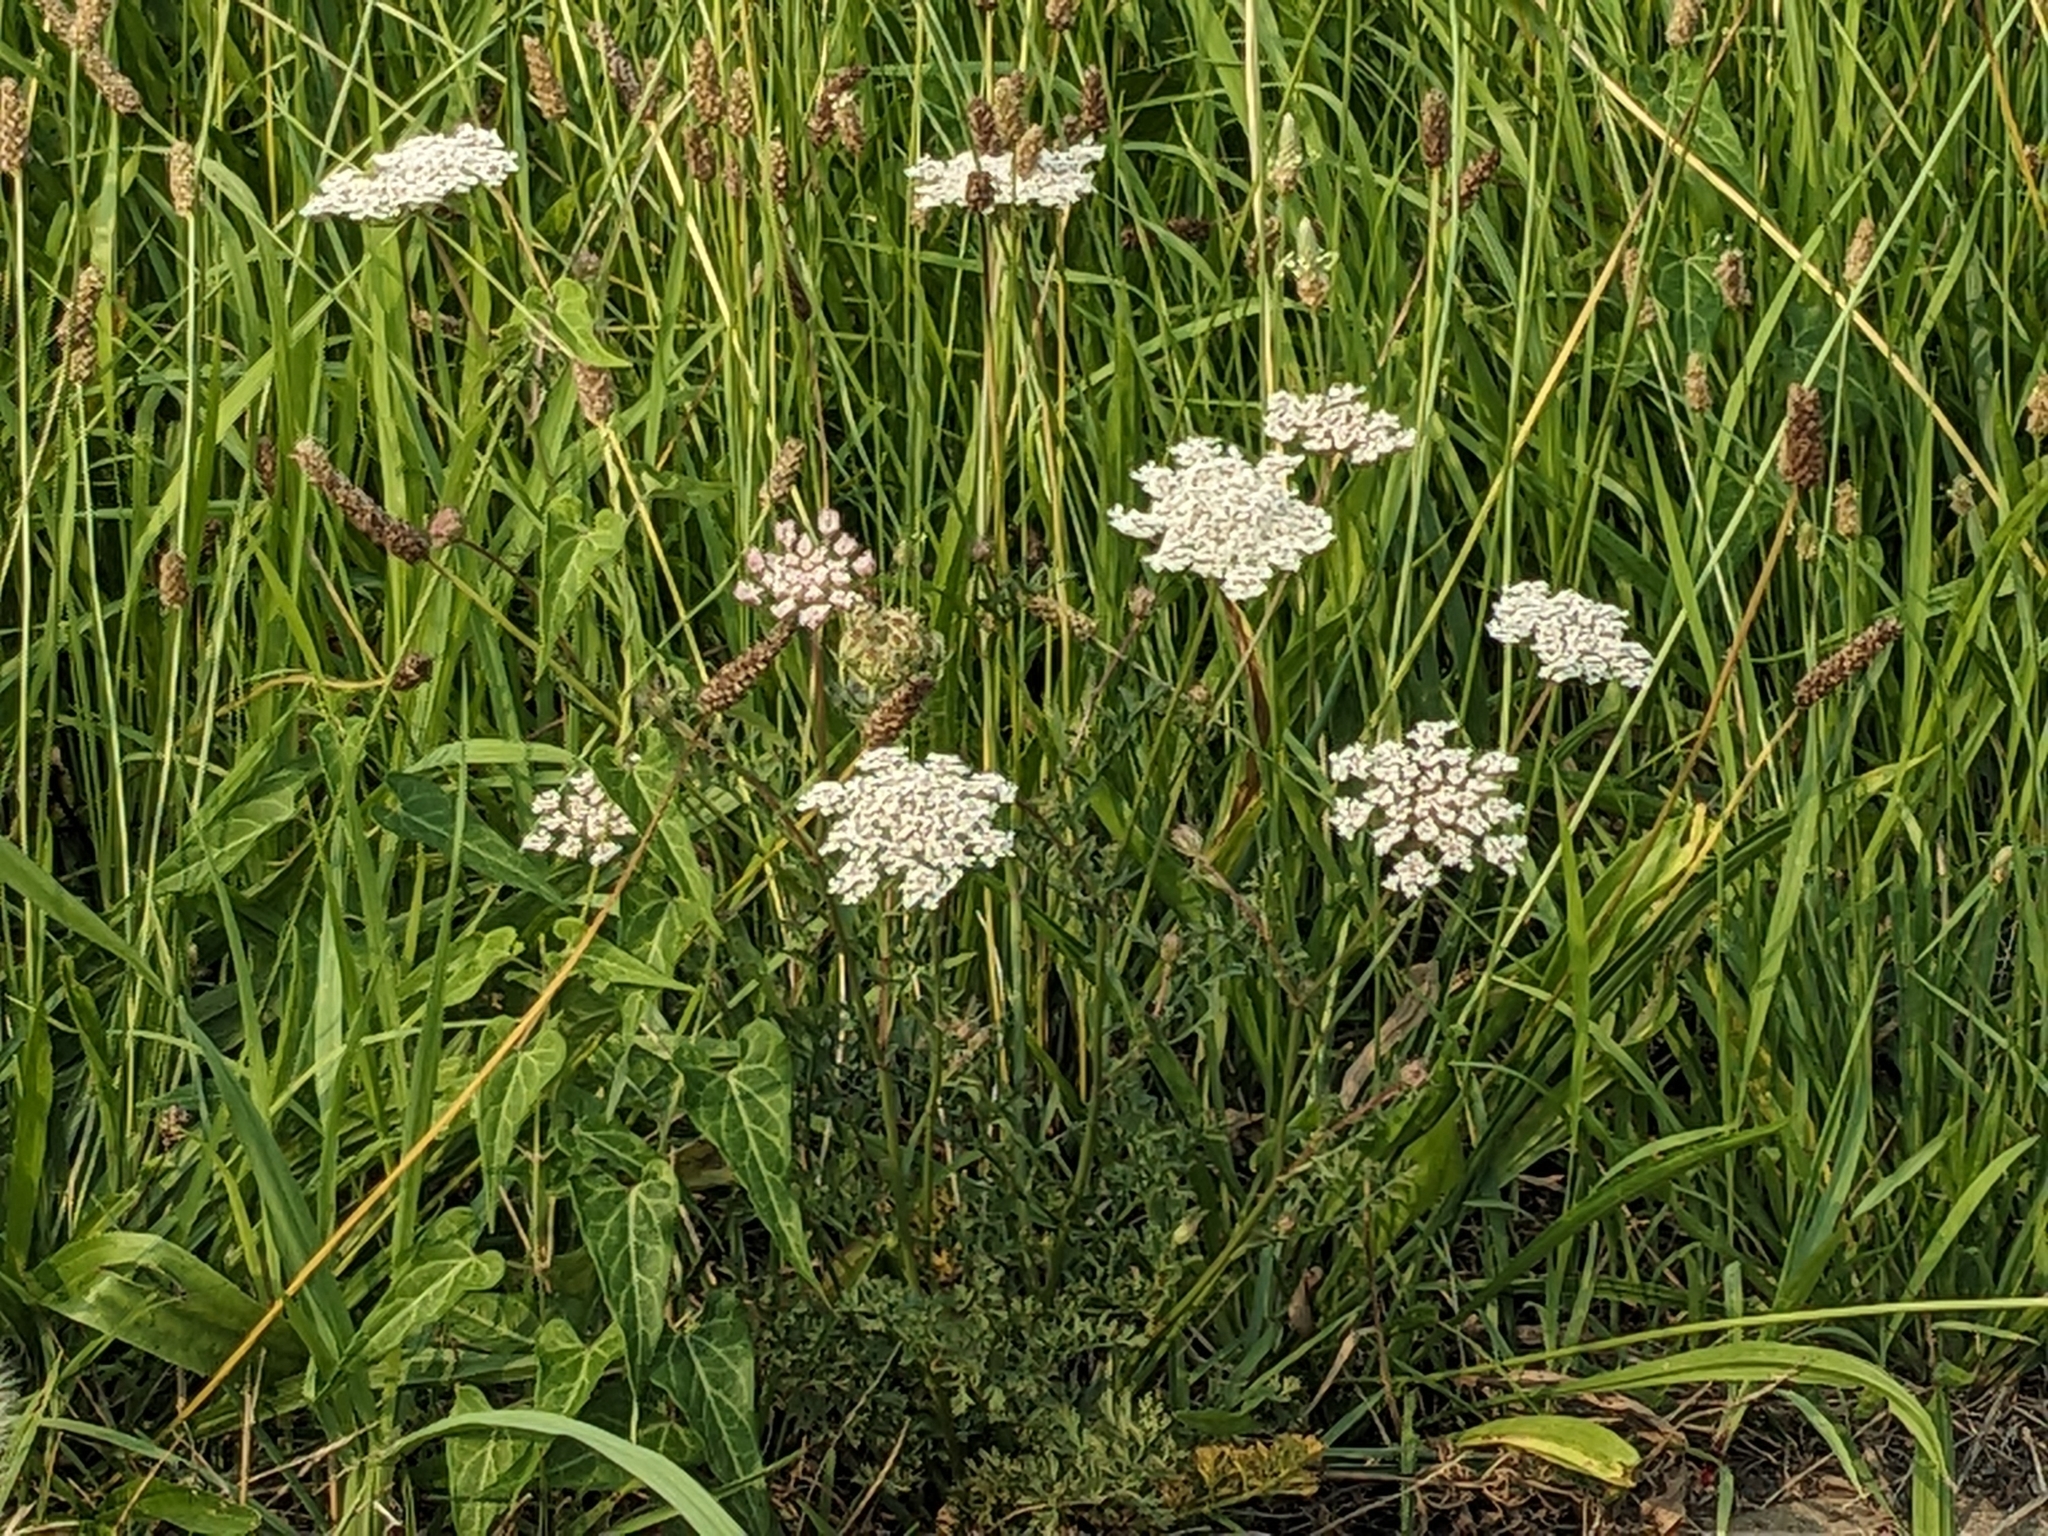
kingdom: Plantae
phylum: Tracheophyta
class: Magnoliopsida
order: Apiales
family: Apiaceae
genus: Daucus
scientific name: Daucus carota
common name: Wild carrot
